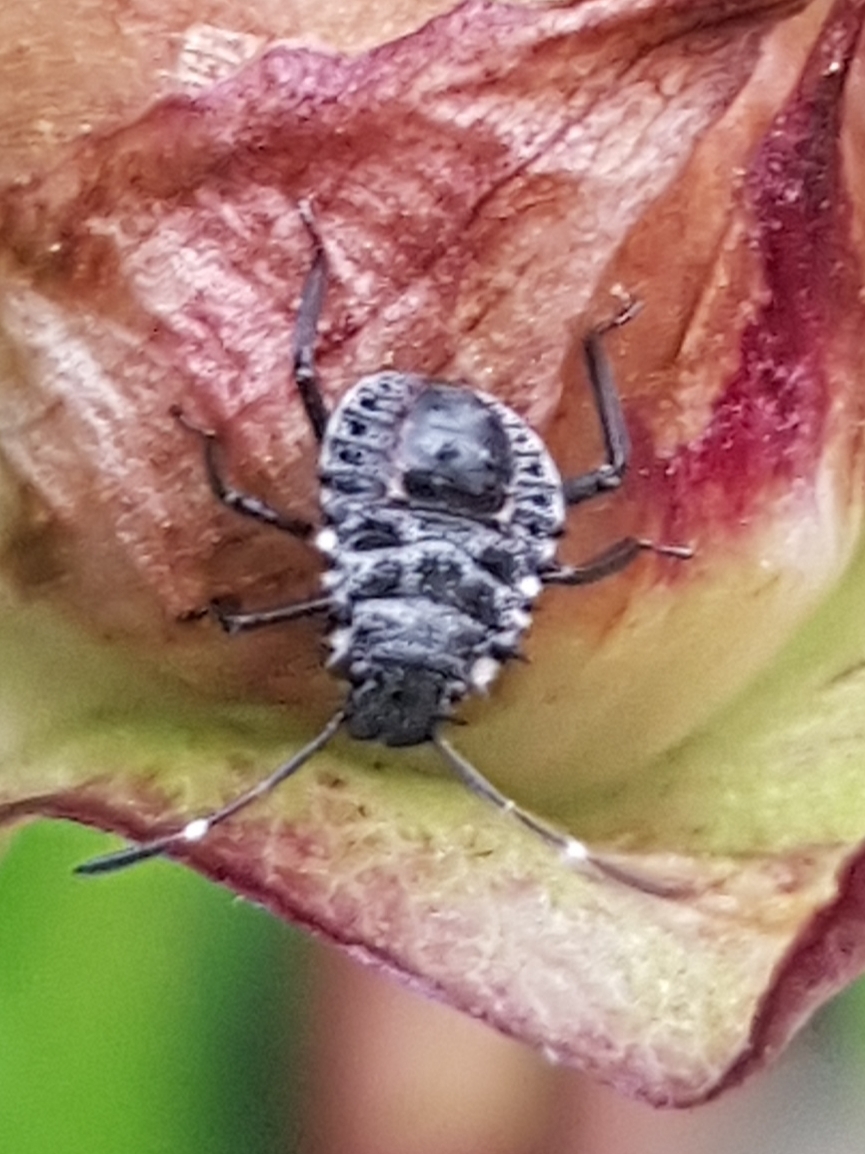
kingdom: Animalia
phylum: Arthropoda
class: Insecta
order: Hemiptera
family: Pentatomidae
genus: Halyomorpha
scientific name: Halyomorpha halys
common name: Brown marmorated stink bug
